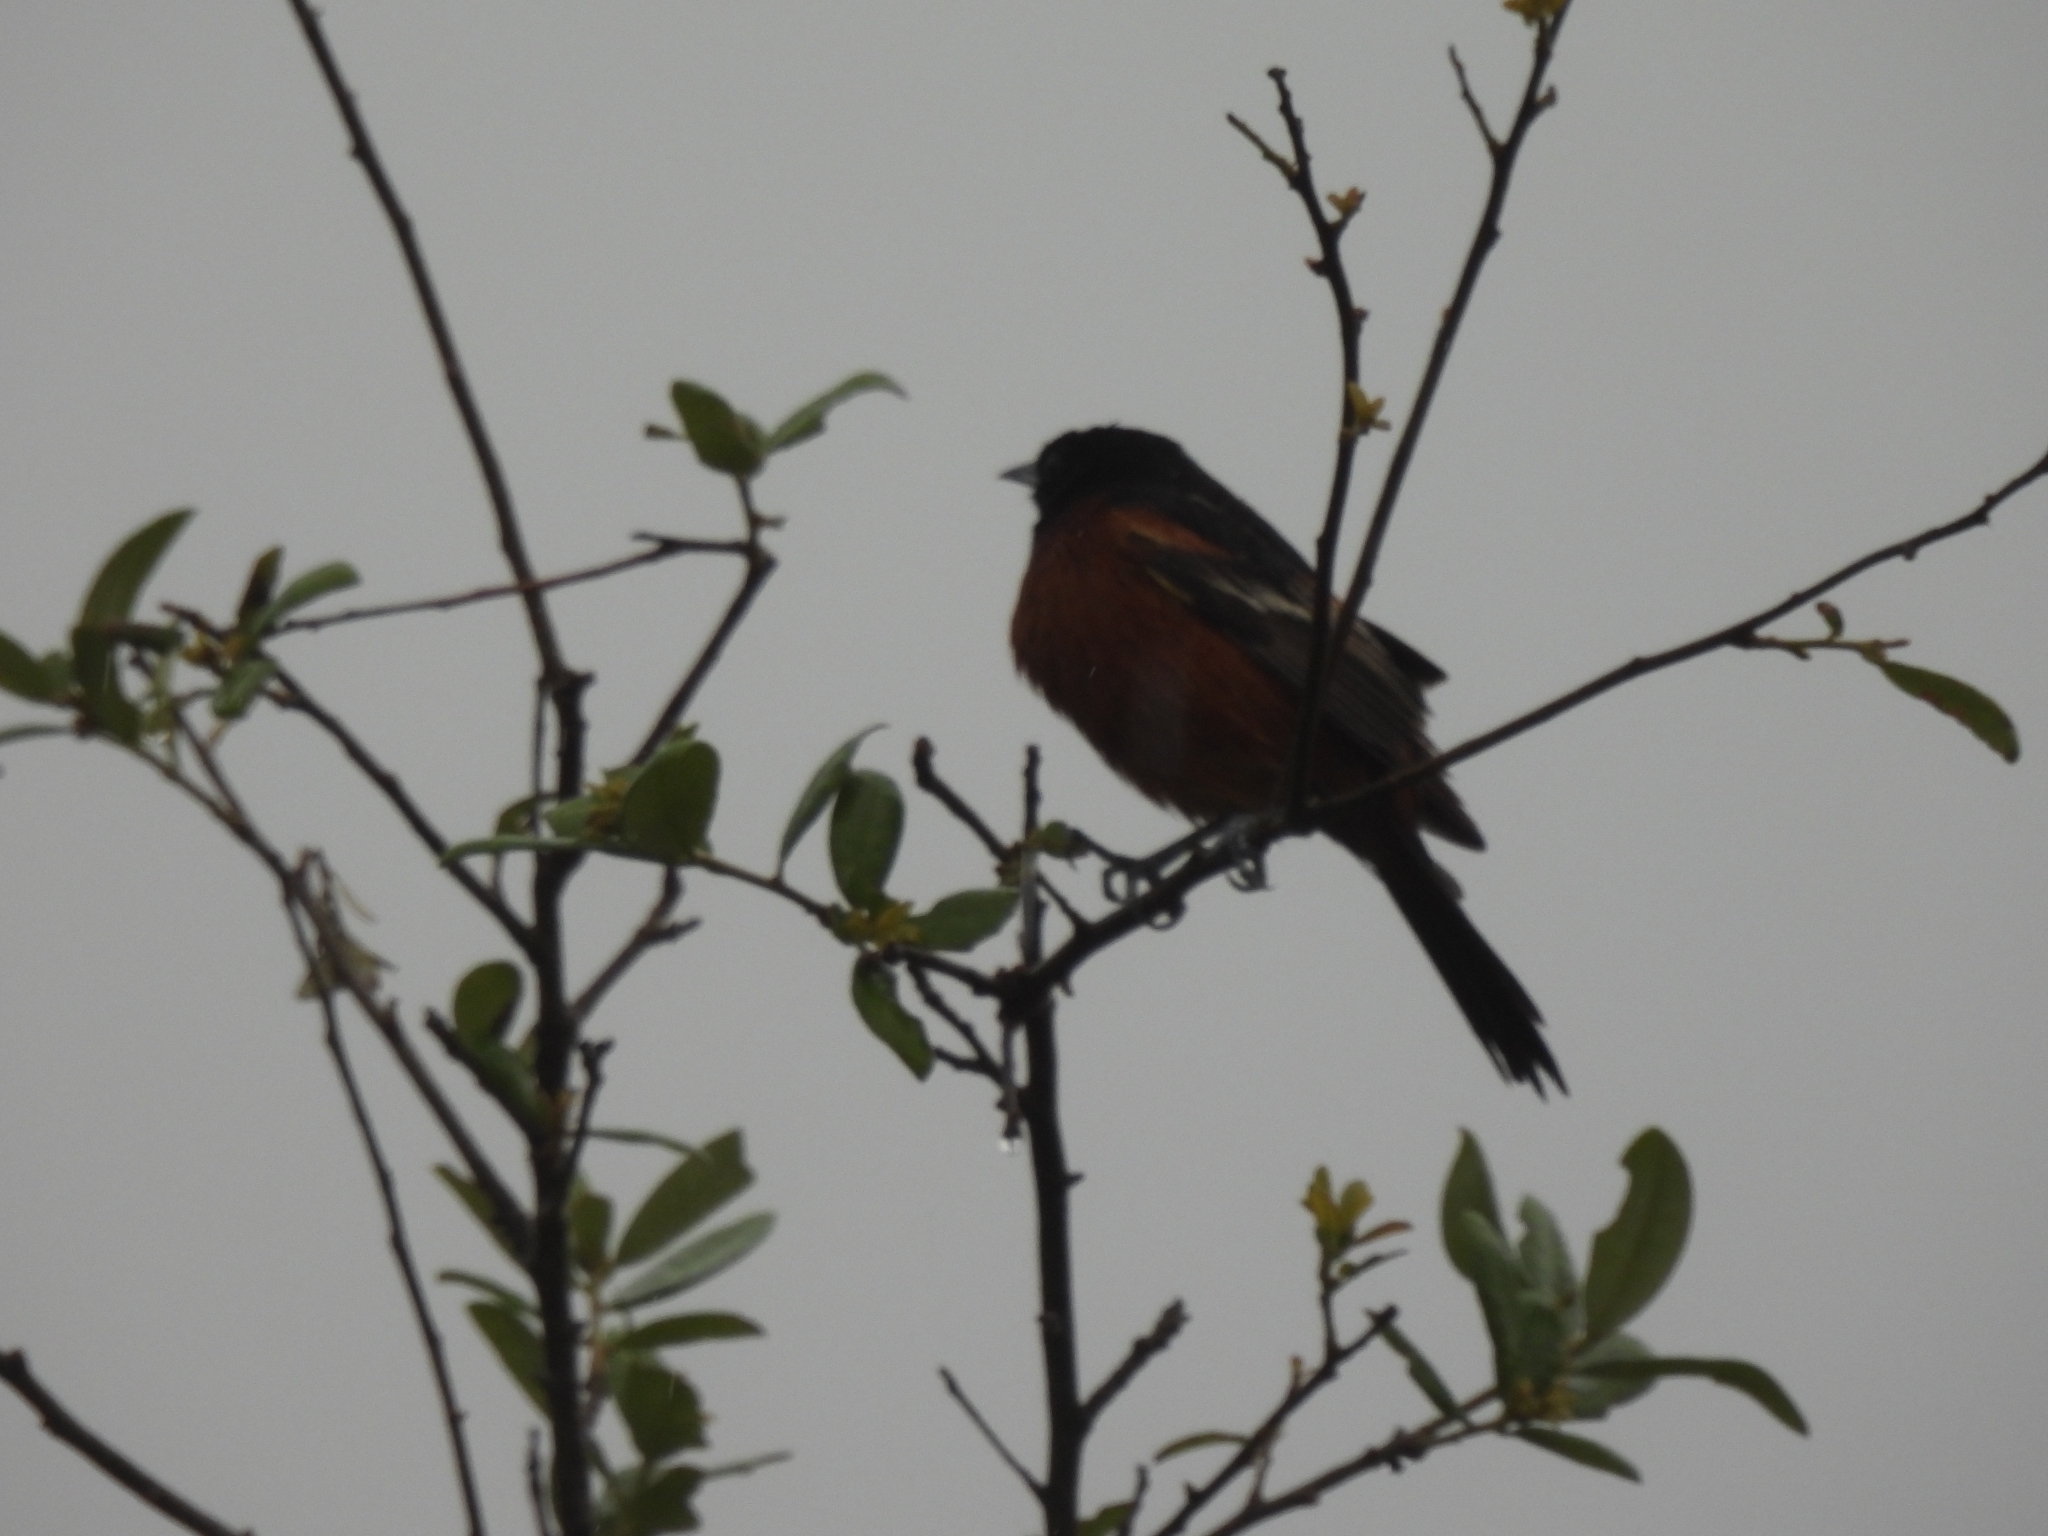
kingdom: Animalia
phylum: Chordata
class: Aves
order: Passeriformes
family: Icteridae
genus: Icterus
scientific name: Icterus spurius
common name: Orchard oriole
